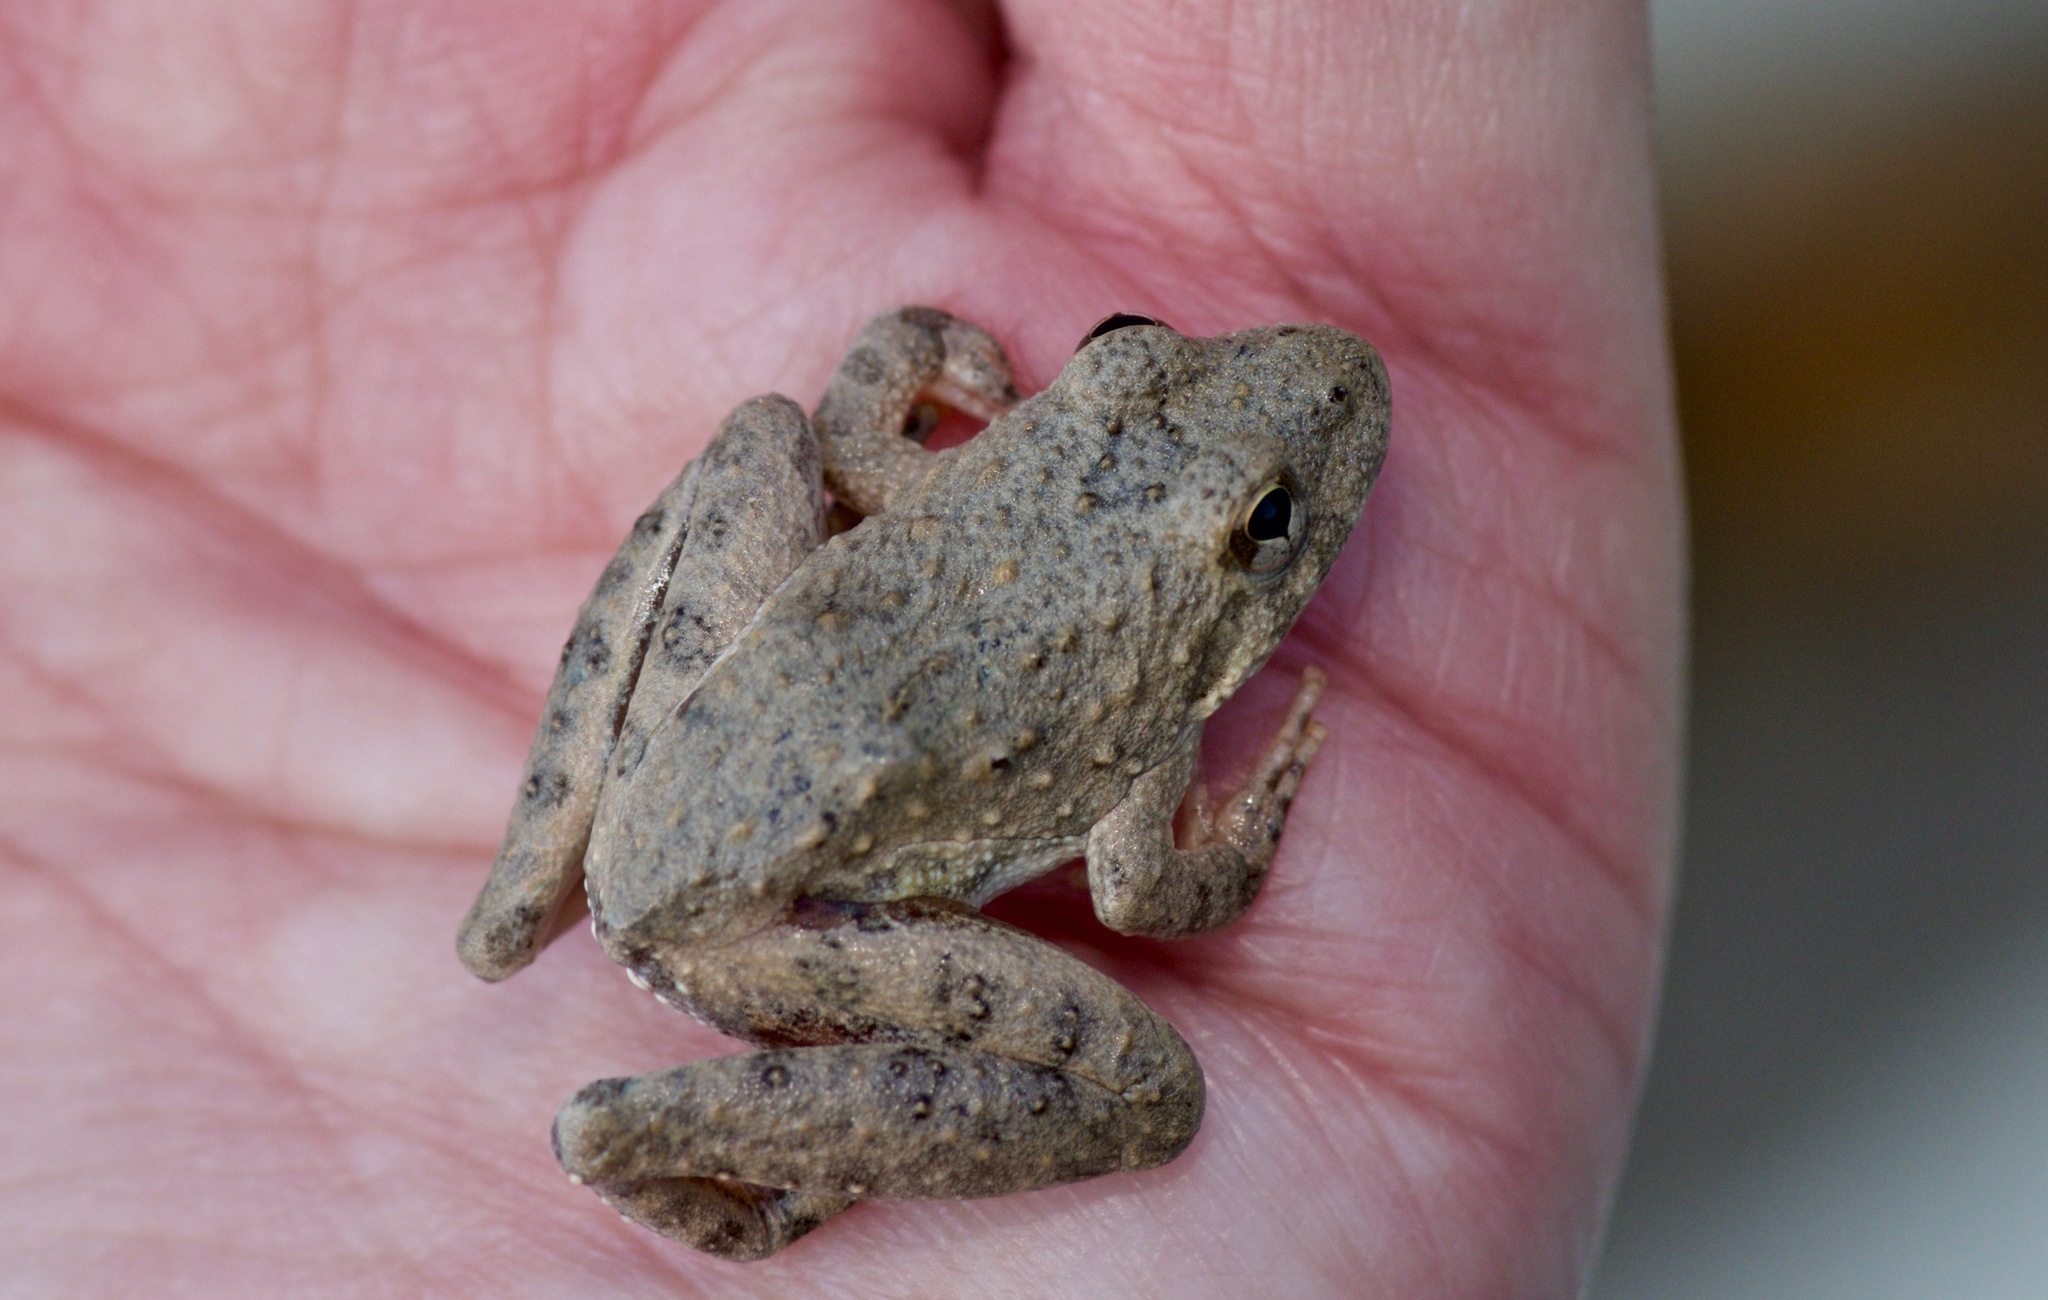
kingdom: Animalia
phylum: Chordata
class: Amphibia
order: Anura
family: Hylidae
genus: Acris
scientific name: Acris blanchardi
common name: Blanchard's cricket frog
